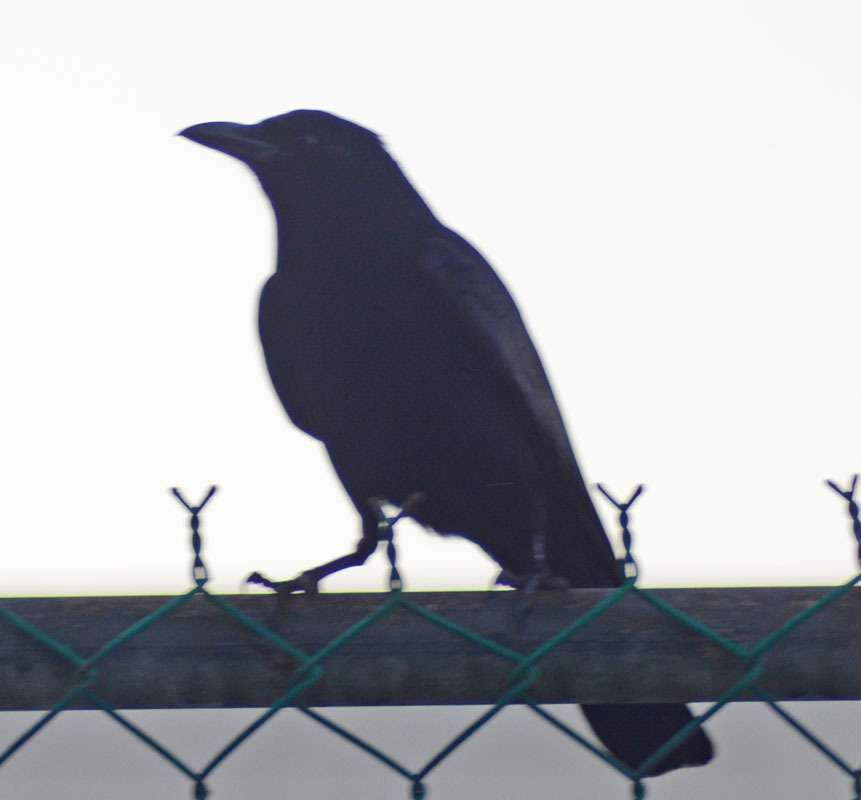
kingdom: Animalia
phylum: Chordata
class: Aves
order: Passeriformes
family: Corvidae
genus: Corvus
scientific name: Corvus sinaloae
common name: Sinaloa crow
